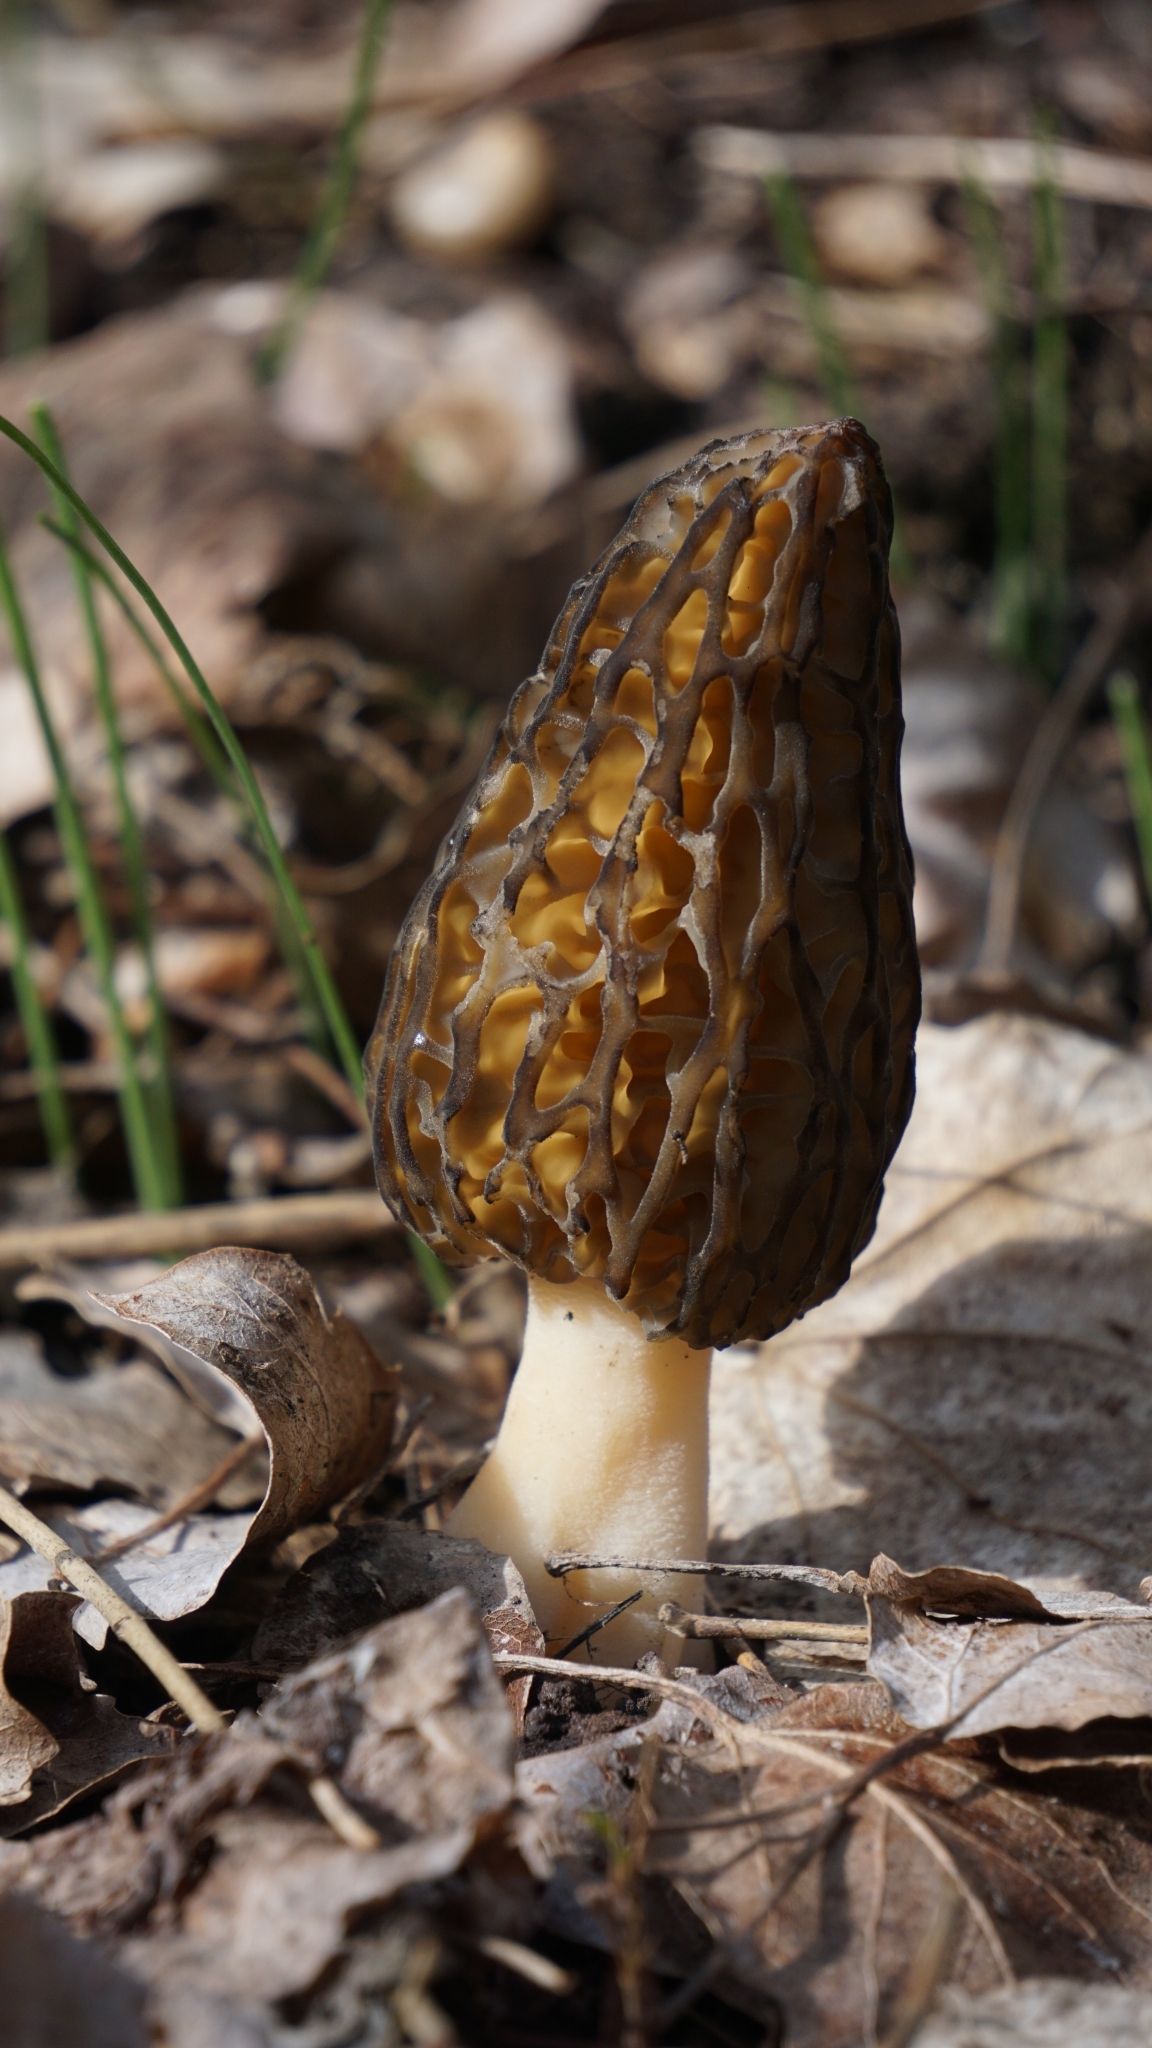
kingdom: Fungi
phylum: Ascomycota
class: Pezizomycetes
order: Pezizales
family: Morchellaceae
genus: Morchella
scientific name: Morchella
